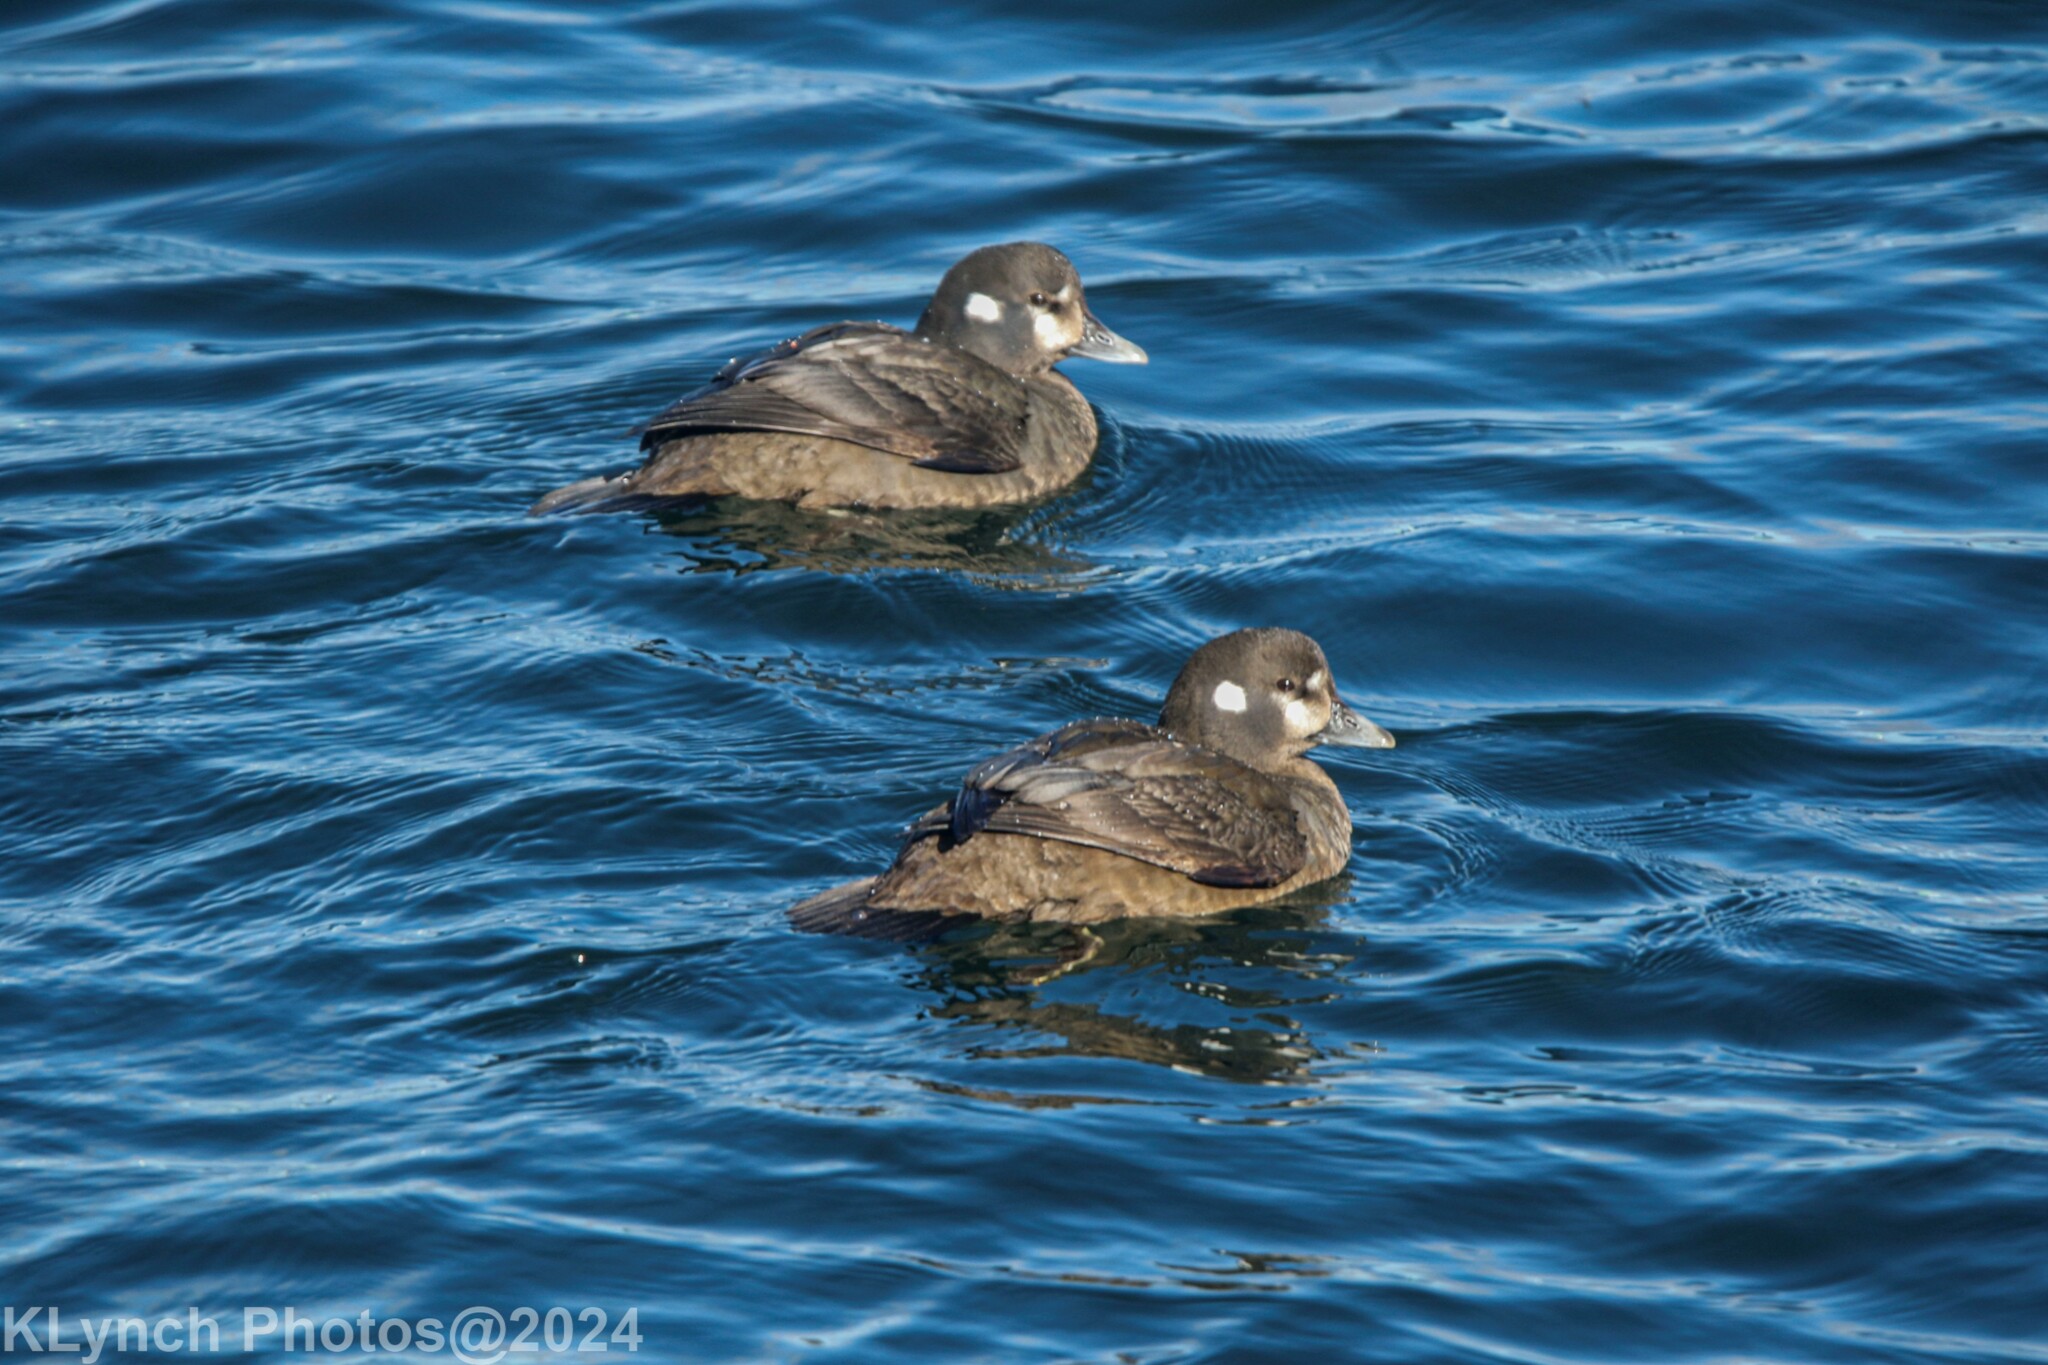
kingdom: Animalia
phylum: Chordata
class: Aves
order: Anseriformes
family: Anatidae
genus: Histrionicus
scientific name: Histrionicus histrionicus
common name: Harlequin duck
